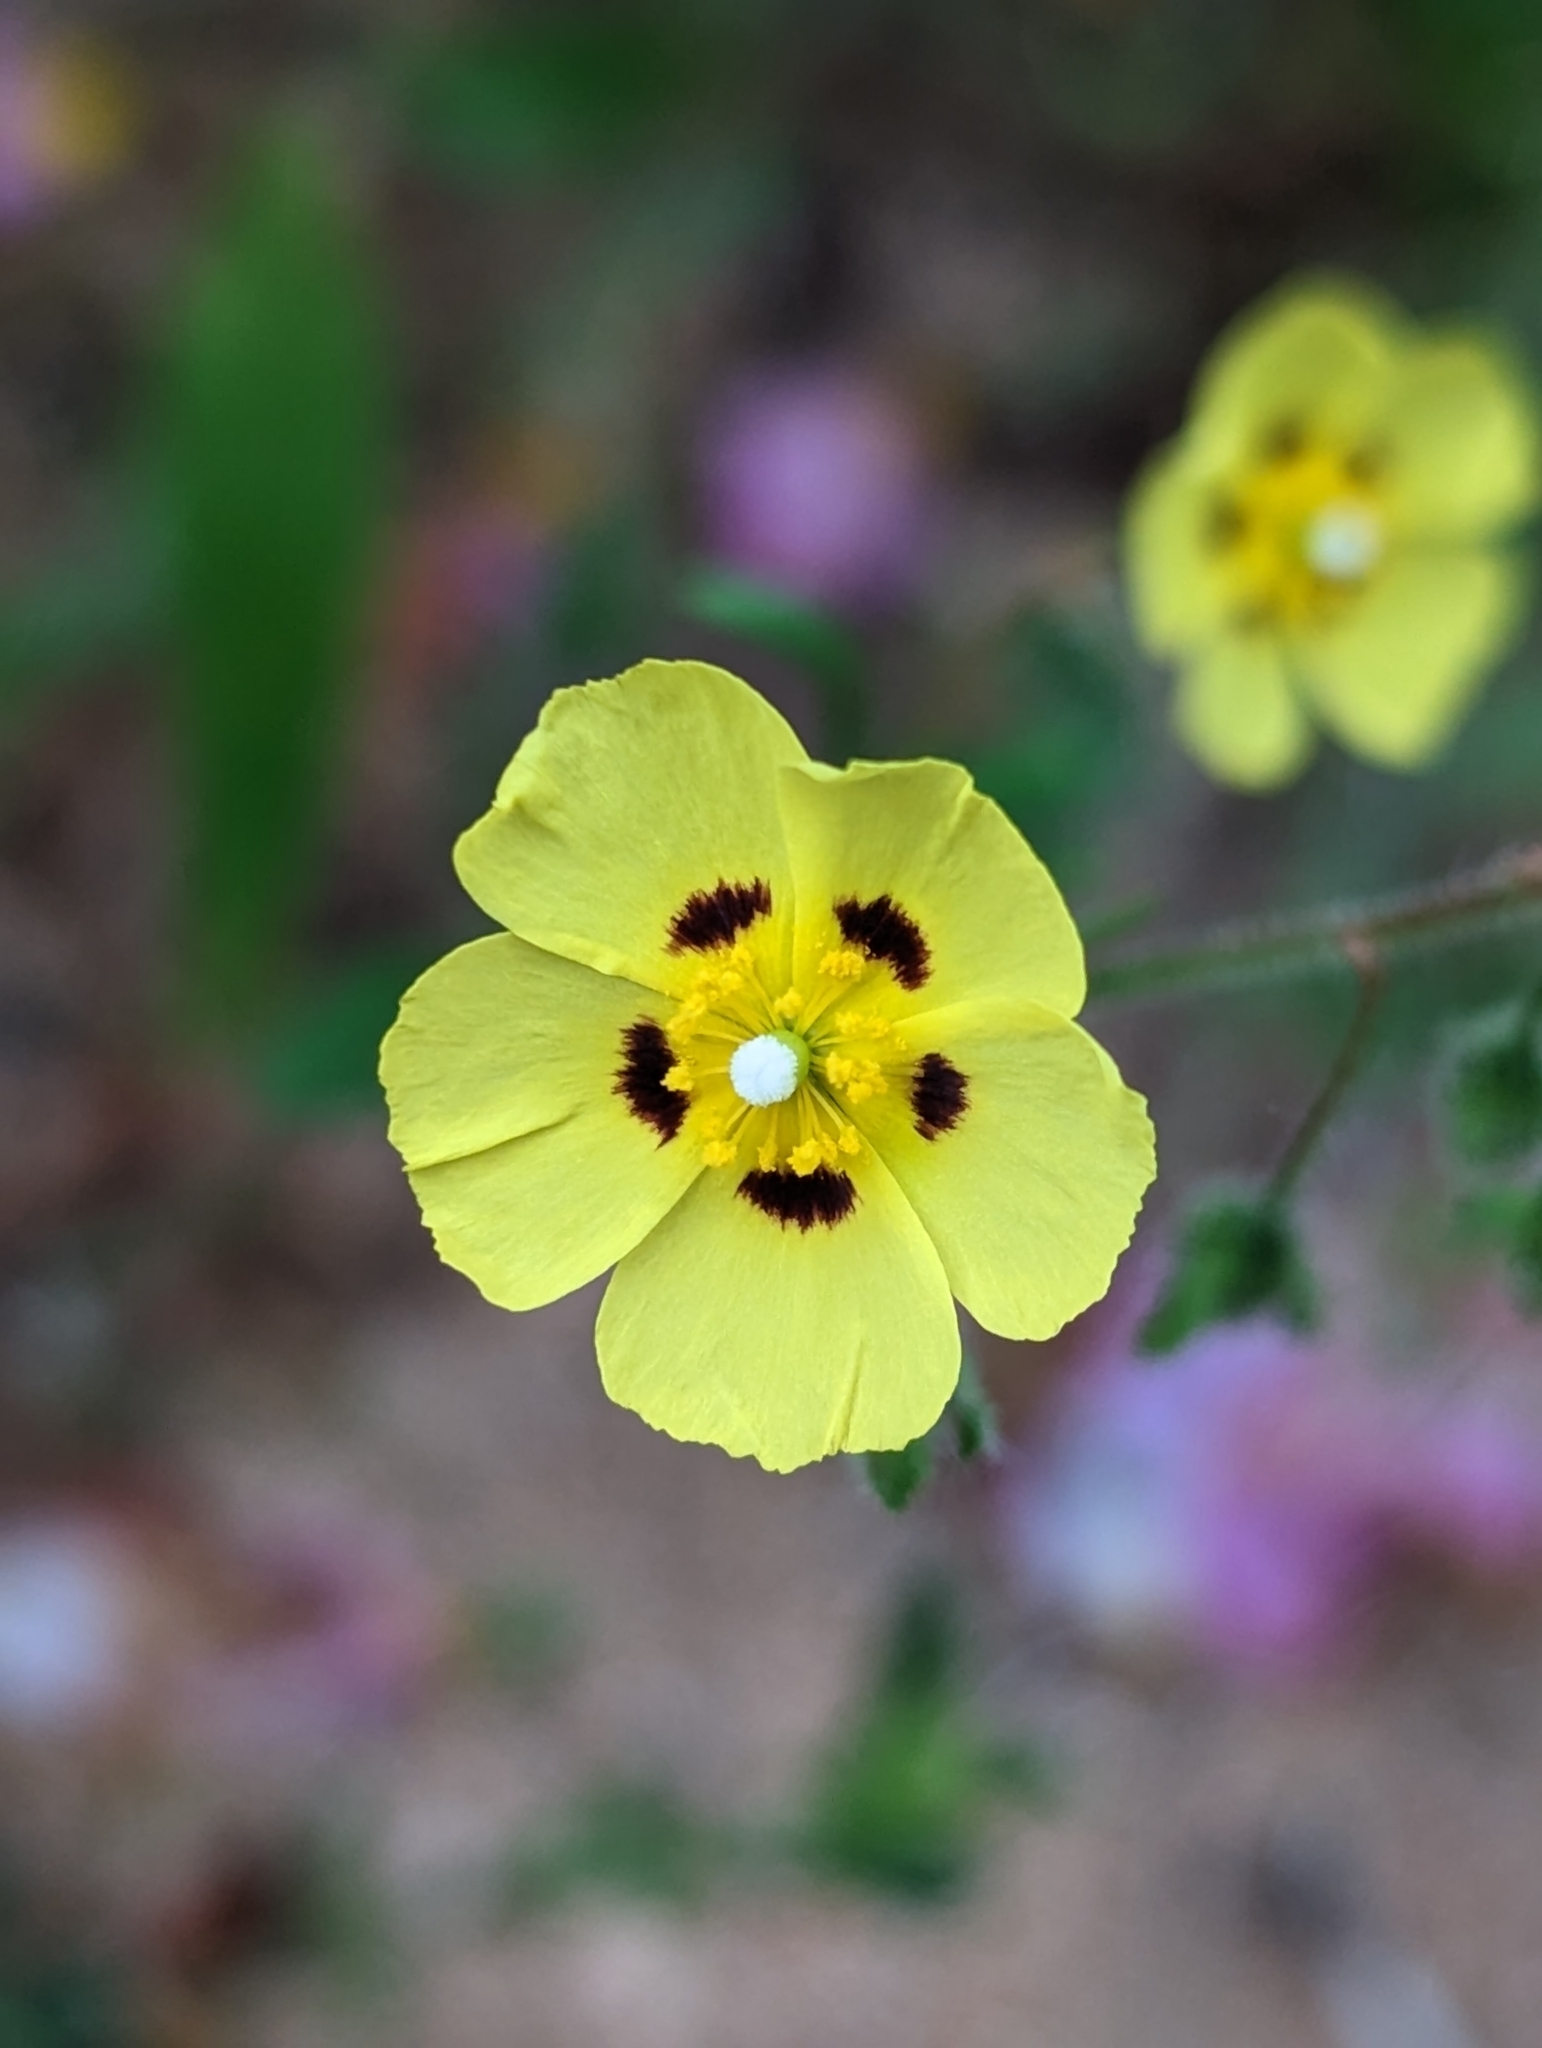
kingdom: Plantae
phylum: Tracheophyta
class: Magnoliopsida
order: Malvales
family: Cistaceae
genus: Tuberaria
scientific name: Tuberaria guttata
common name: Spotted rock-rose
